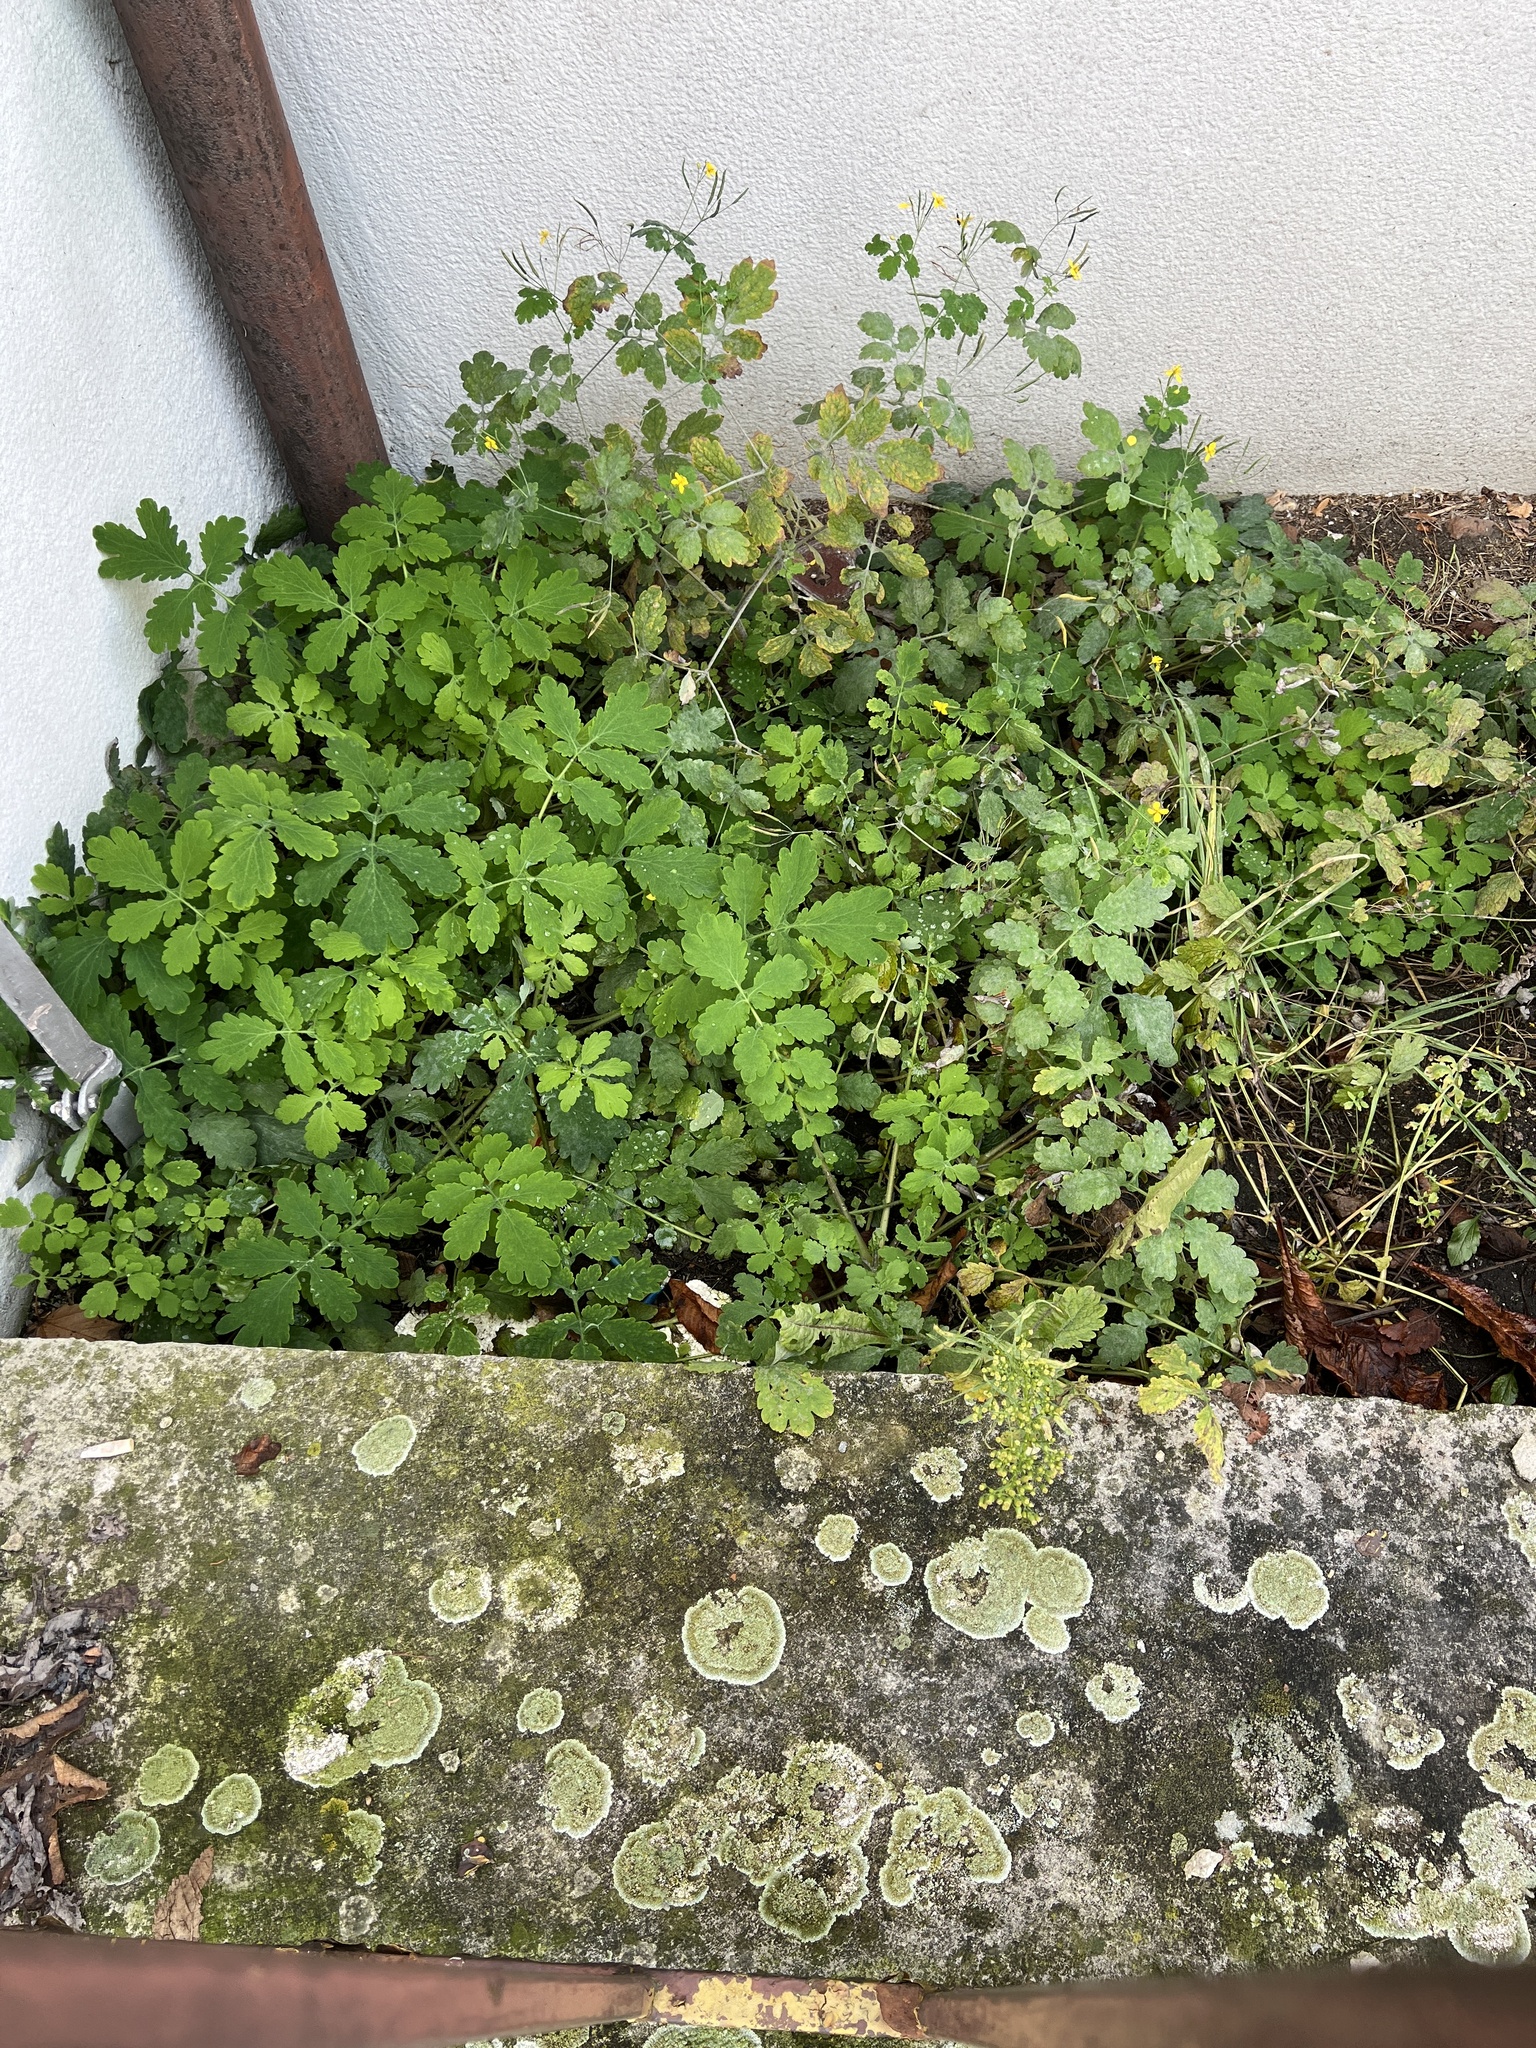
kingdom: Plantae
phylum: Tracheophyta
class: Magnoliopsida
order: Ranunculales
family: Papaveraceae
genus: Chelidonium
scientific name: Chelidonium majus
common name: Greater celandine
